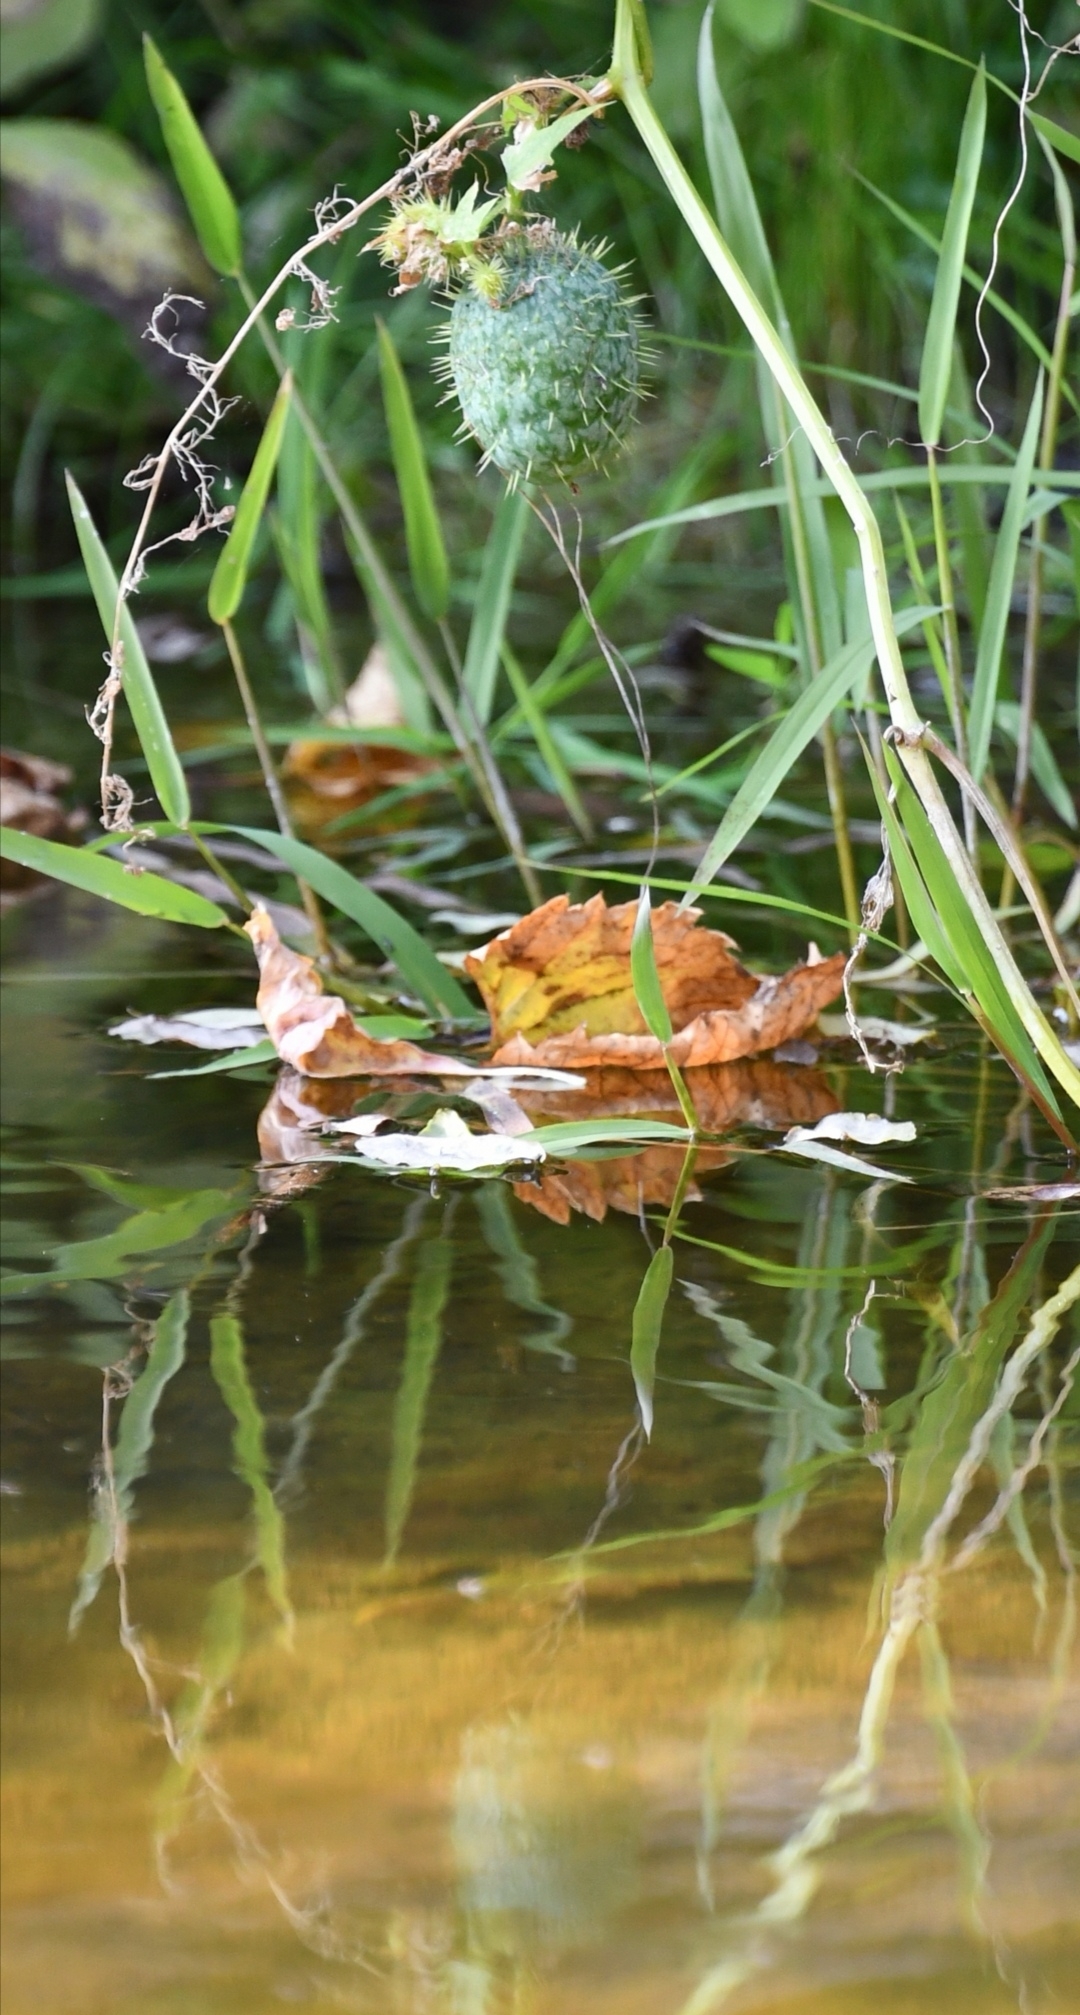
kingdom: Plantae
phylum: Tracheophyta
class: Magnoliopsida
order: Cucurbitales
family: Cucurbitaceae
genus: Echinocystis
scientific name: Echinocystis lobata
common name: Wild cucumber
